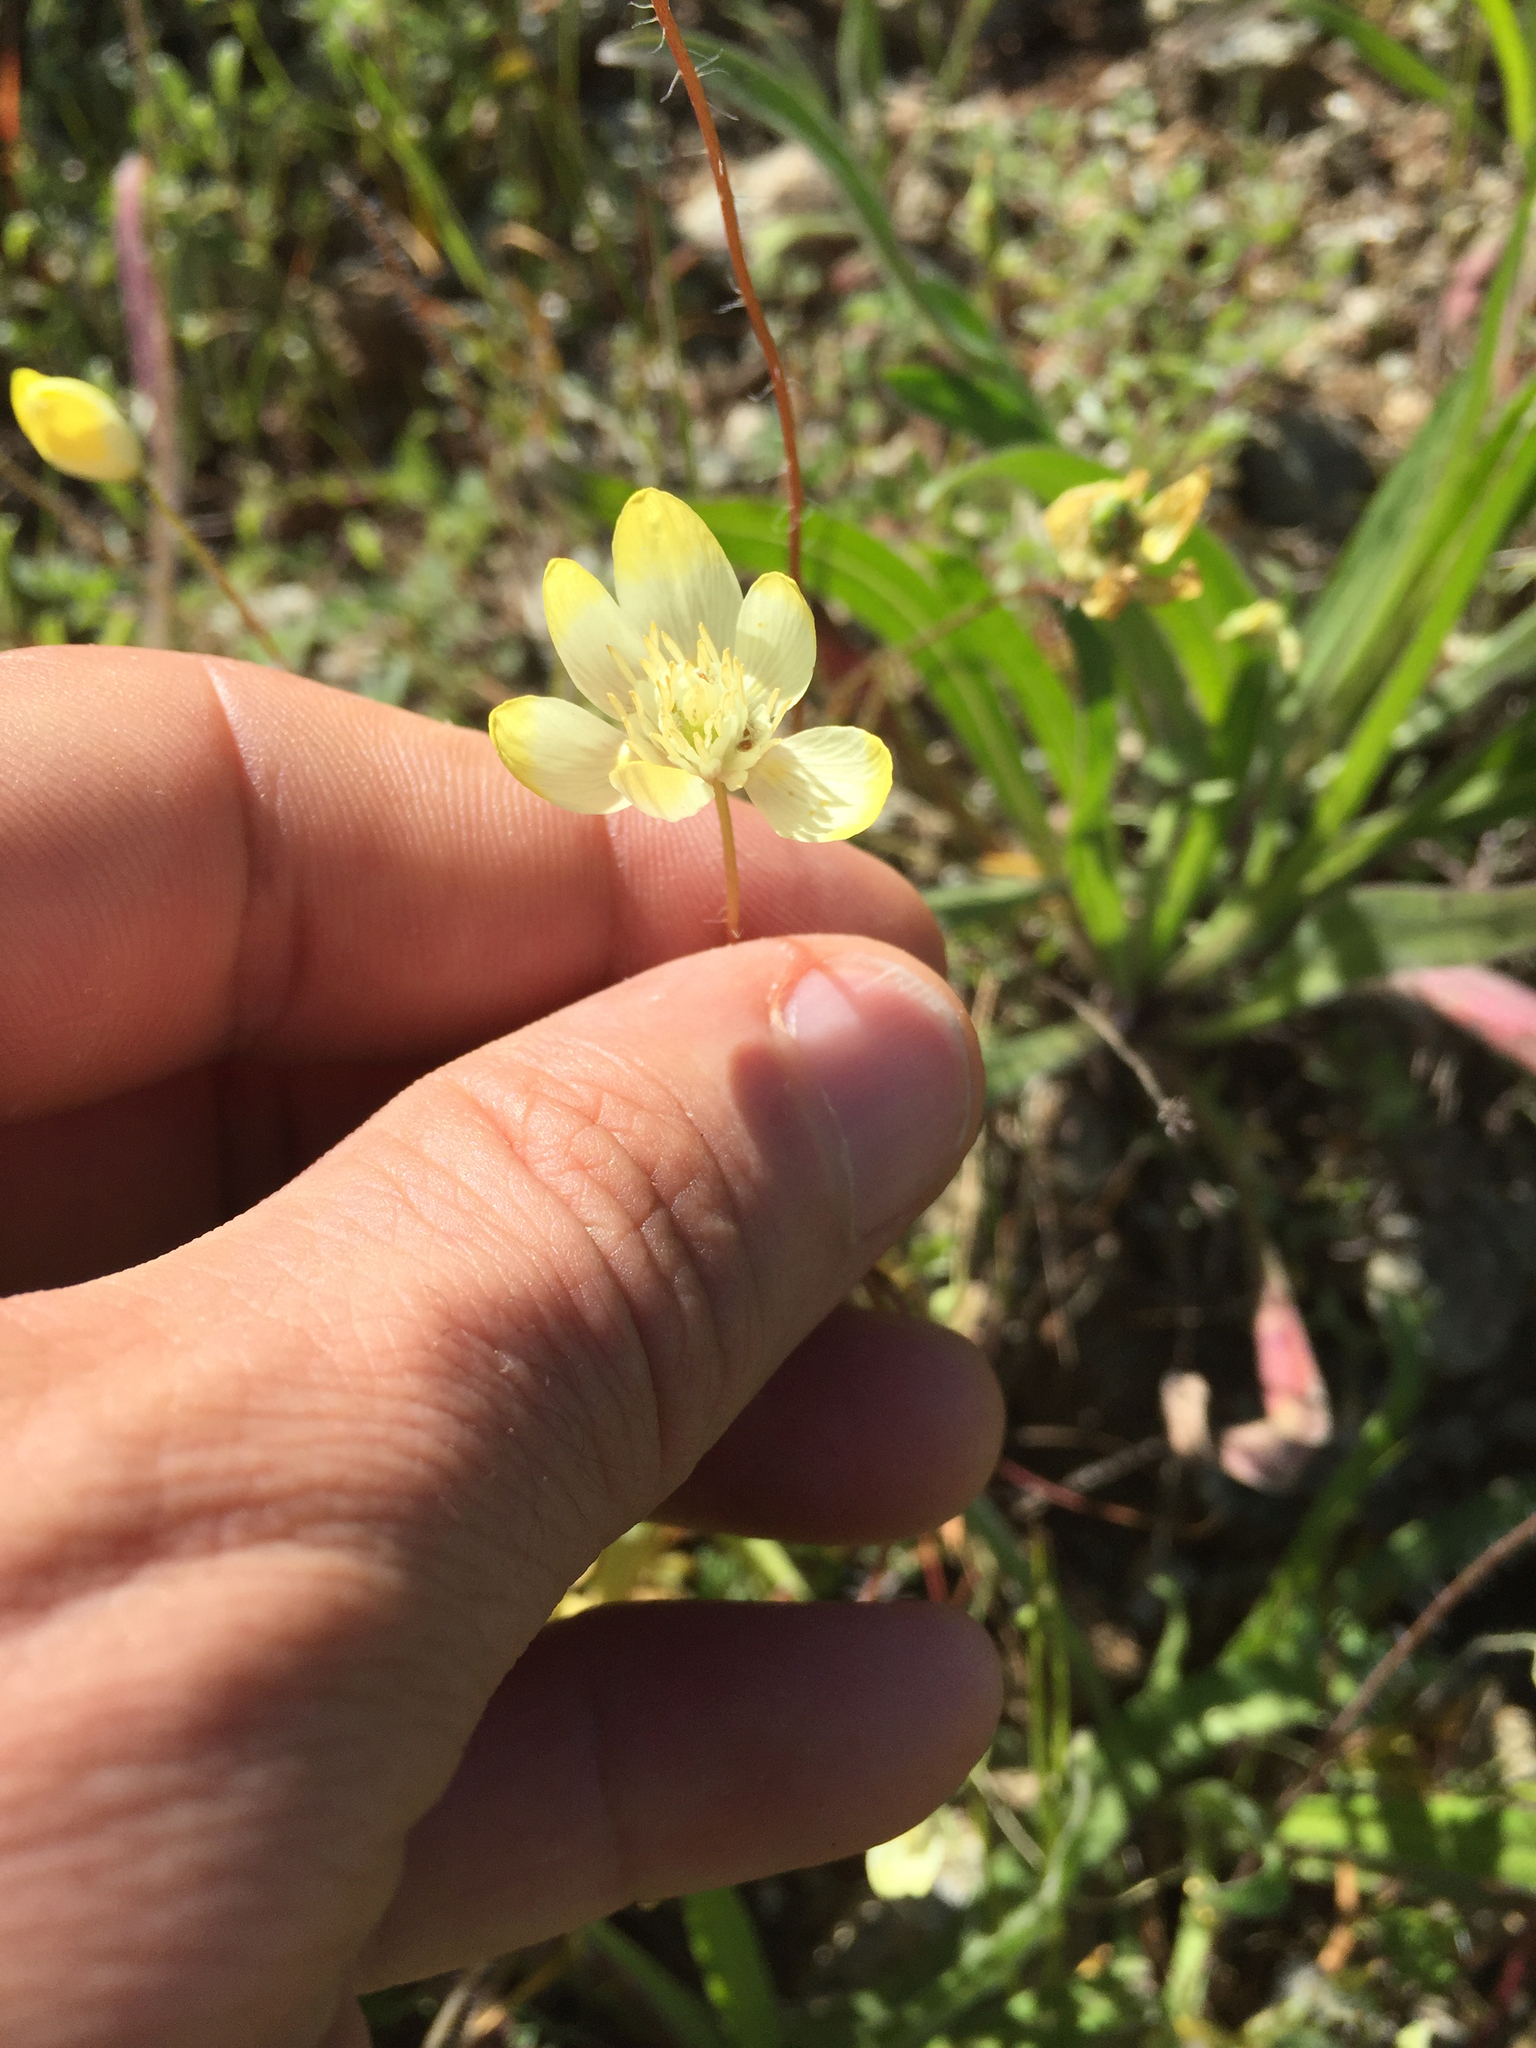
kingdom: Plantae
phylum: Tracheophyta
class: Magnoliopsida
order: Ranunculales
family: Papaveraceae
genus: Platystemon
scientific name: Platystemon californicus
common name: Cream-cups
